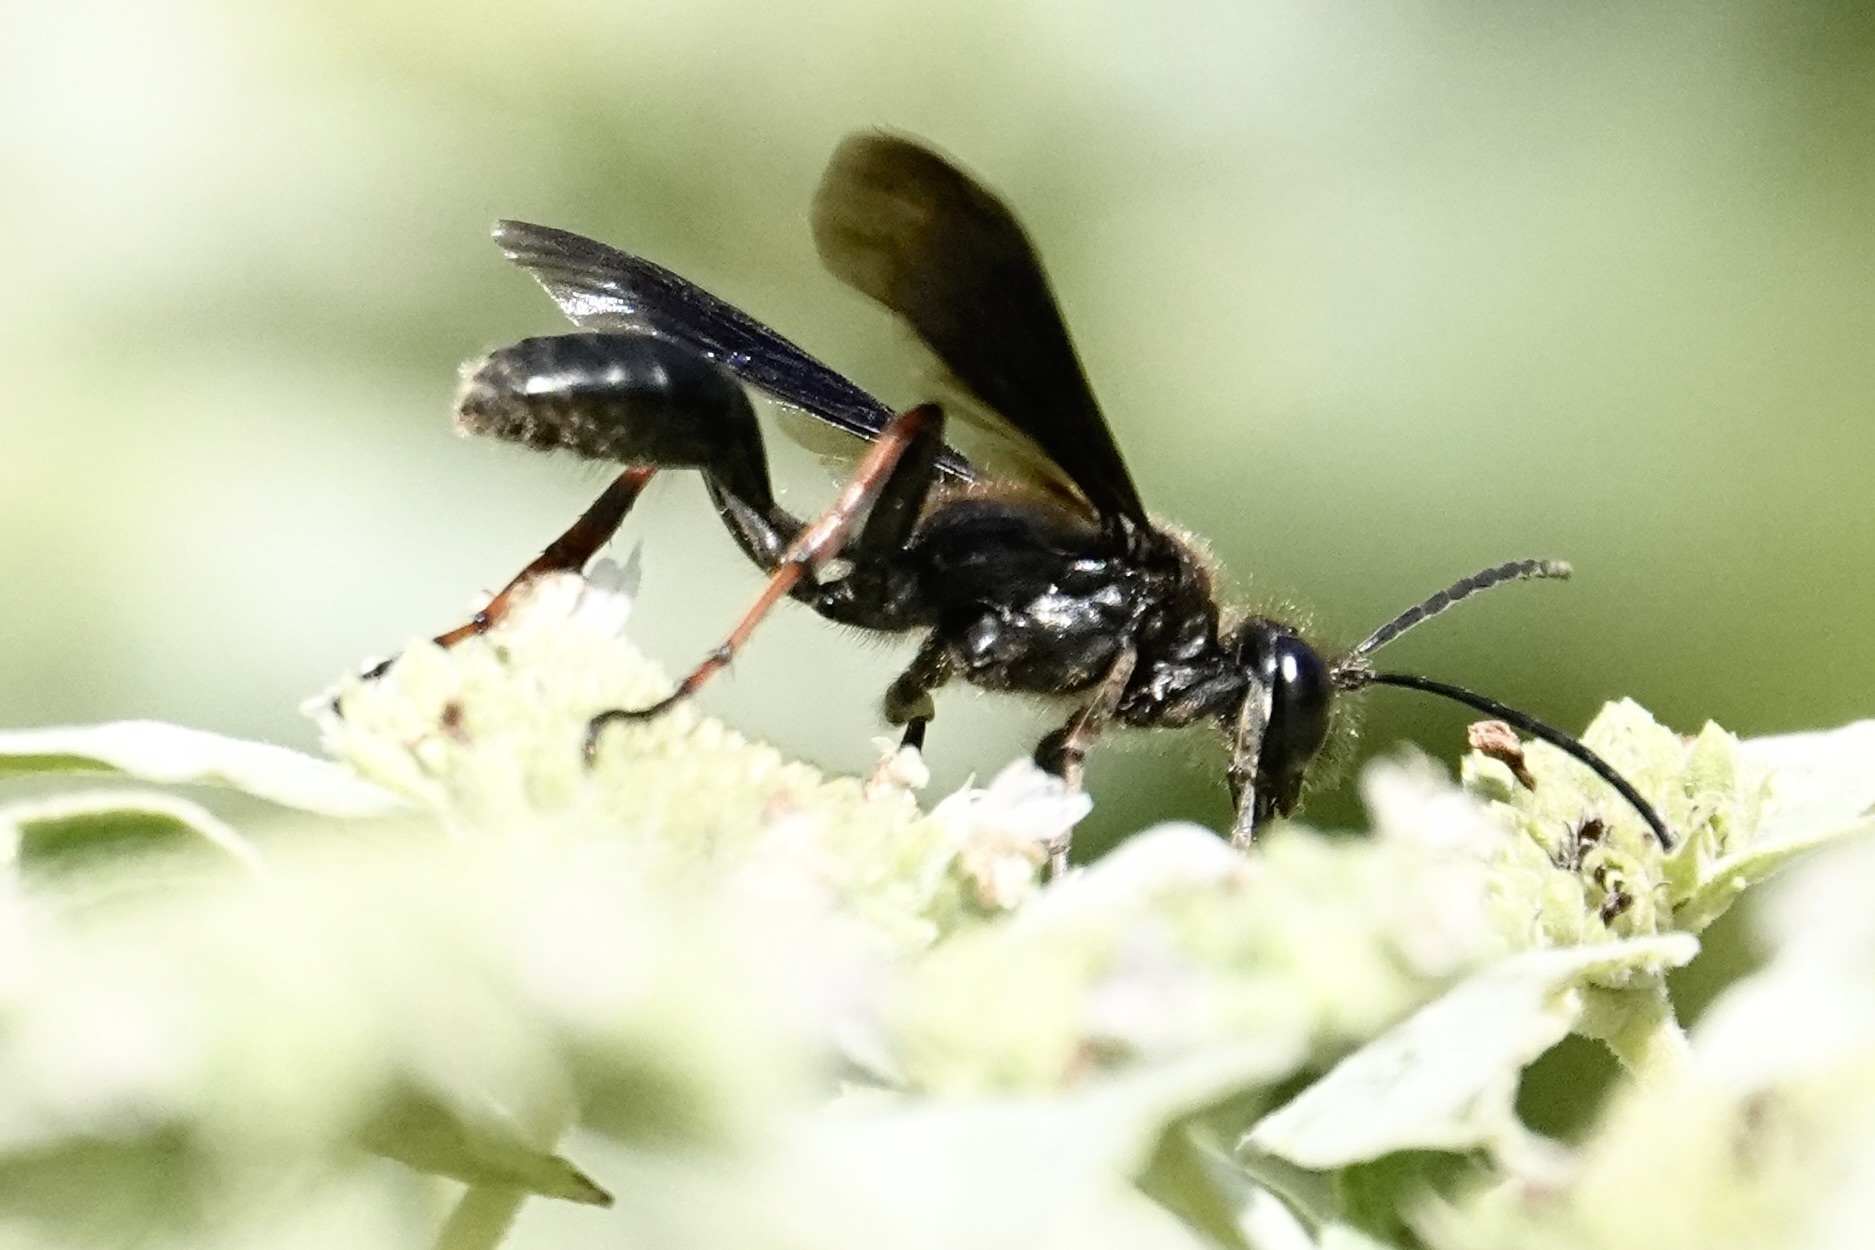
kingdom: Animalia
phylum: Arthropoda
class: Insecta
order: Hymenoptera
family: Sphecidae
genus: Isodontia
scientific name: Isodontia auripes
